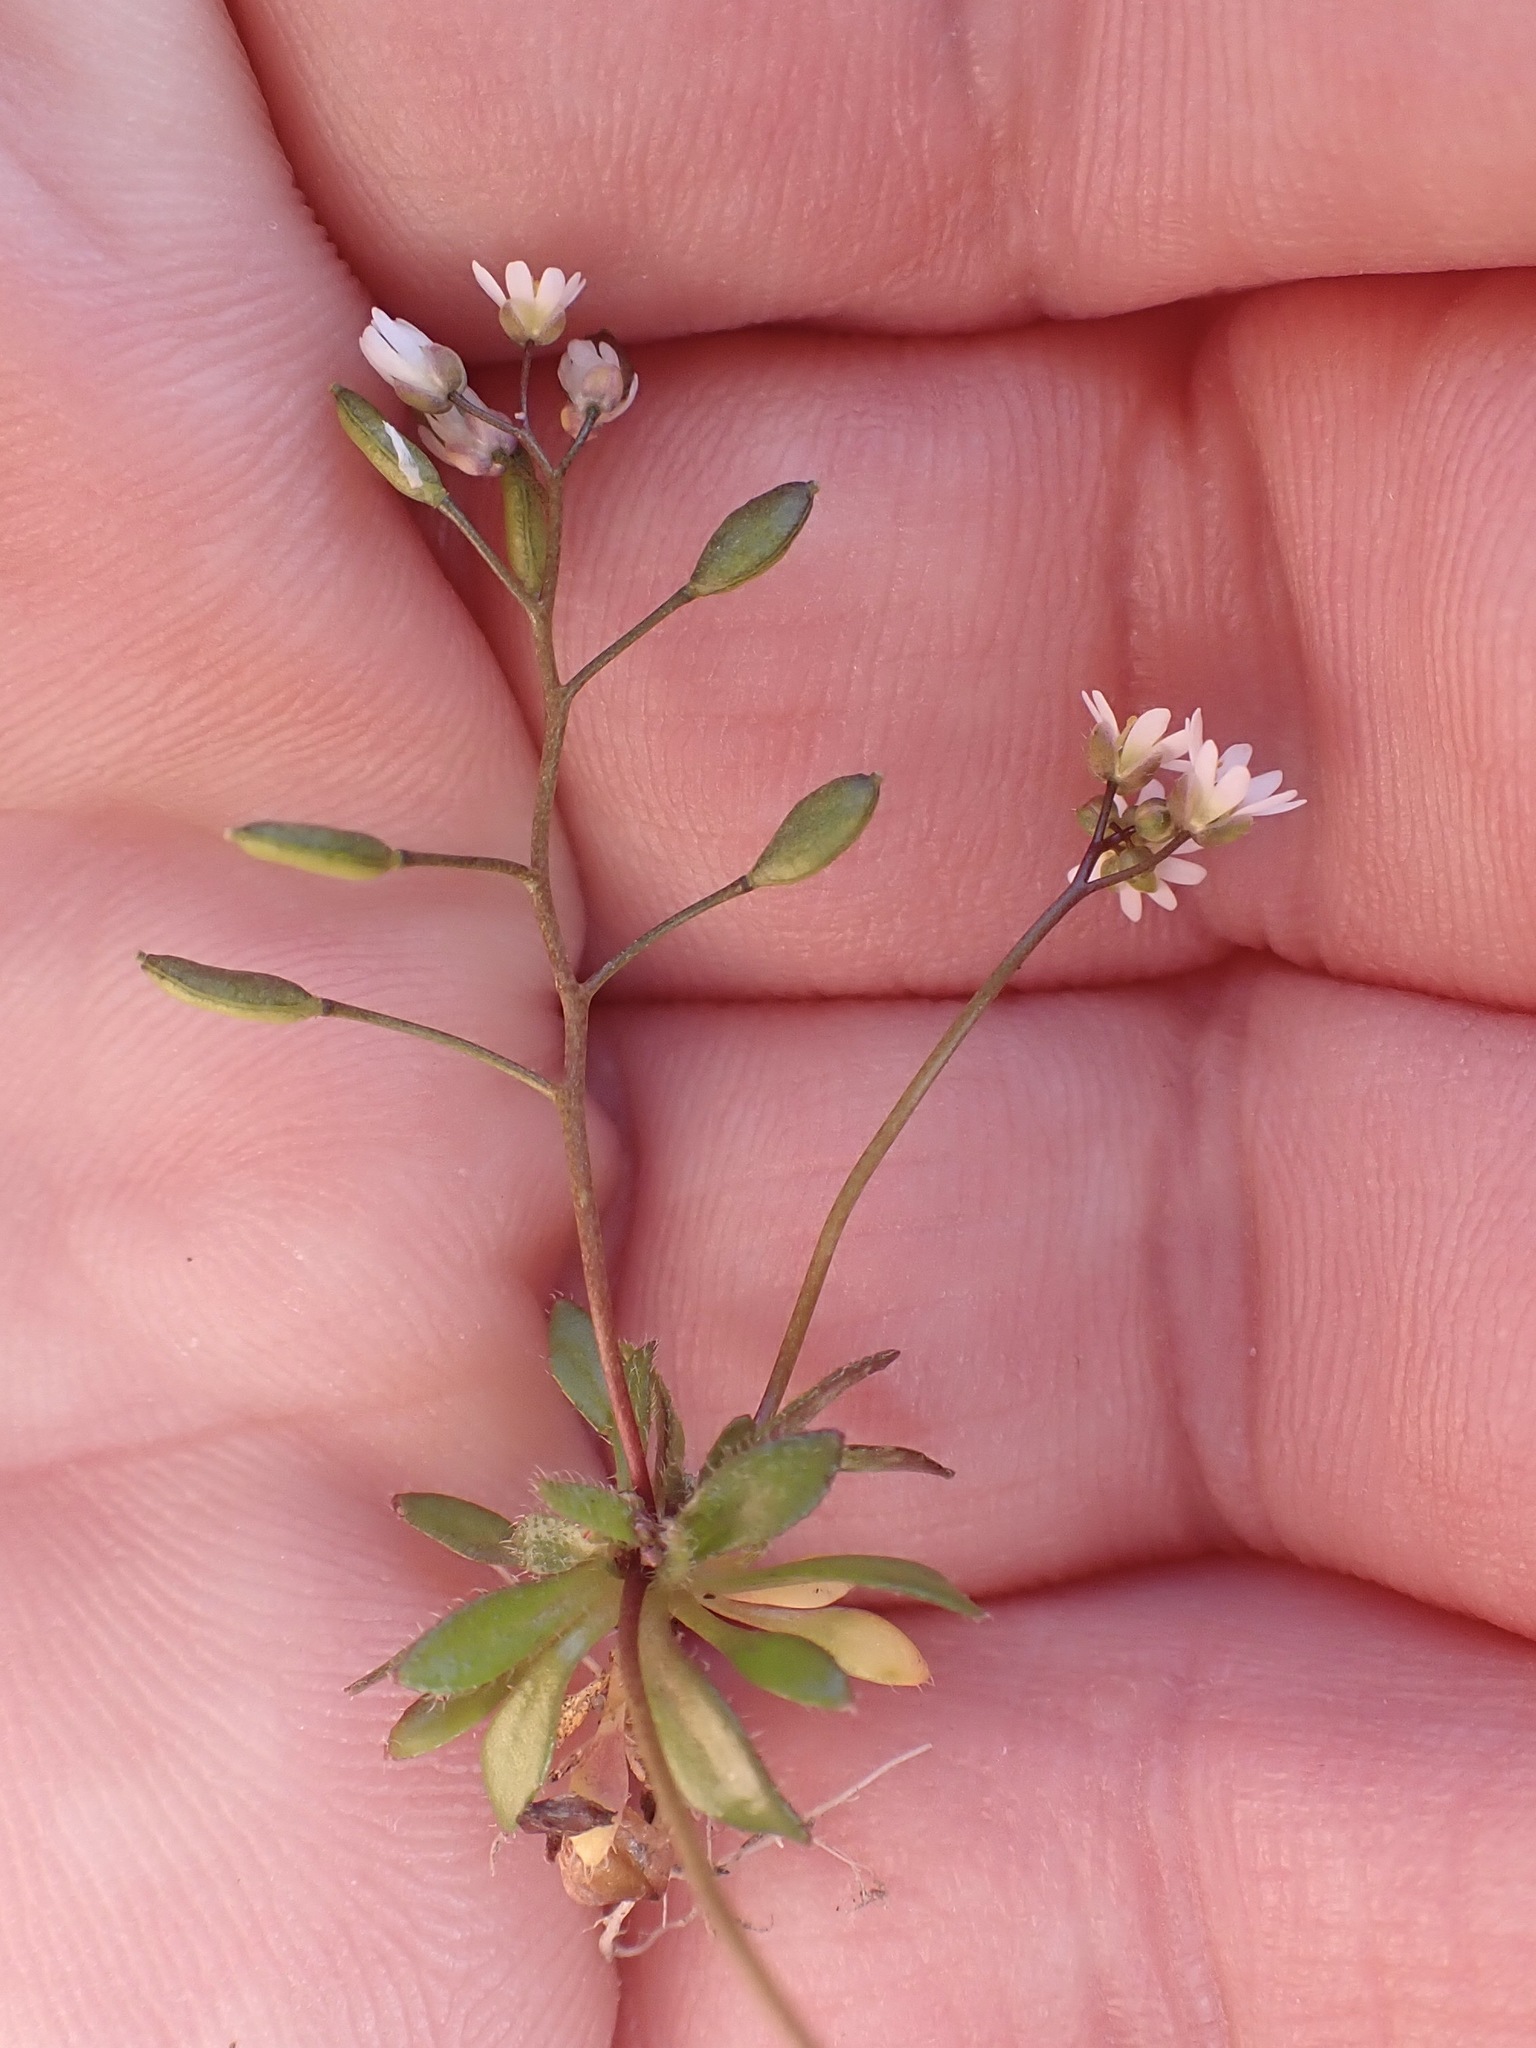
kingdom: Plantae
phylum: Tracheophyta
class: Magnoliopsida
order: Brassicales
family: Brassicaceae
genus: Draba
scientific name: Draba verna
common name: Spring draba
